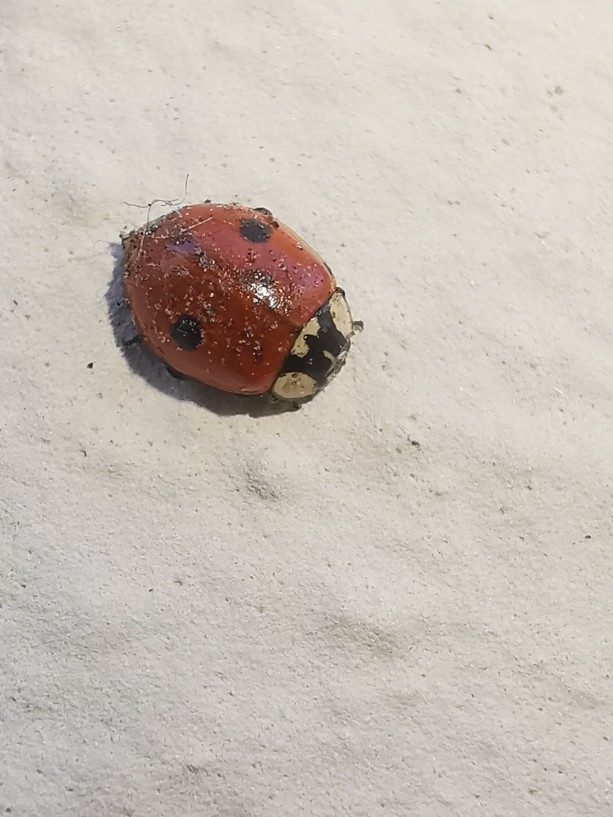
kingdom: Animalia
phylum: Arthropoda
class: Insecta
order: Coleoptera
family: Coccinellidae
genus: Adalia
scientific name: Adalia bipunctata
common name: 2-spot ladybird
